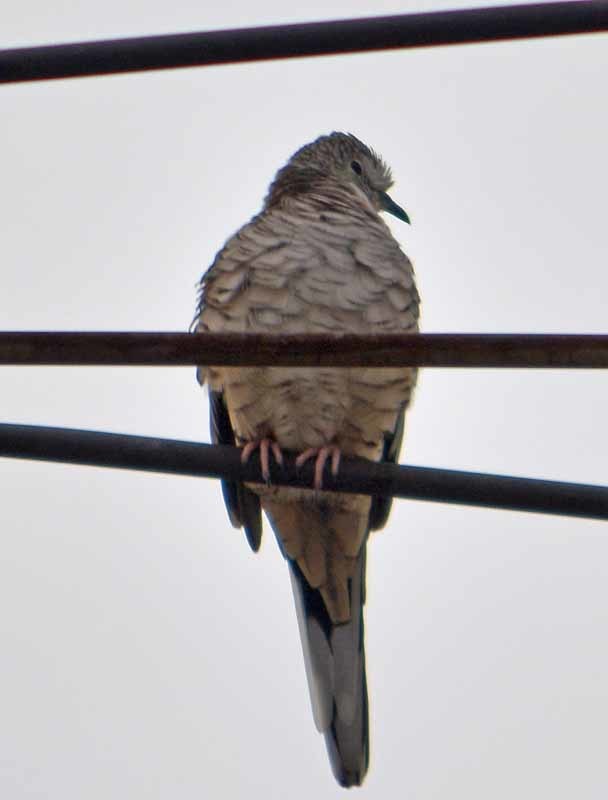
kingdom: Animalia
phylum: Chordata
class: Aves
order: Columbiformes
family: Columbidae
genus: Columbina
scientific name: Columbina inca
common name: Inca dove
